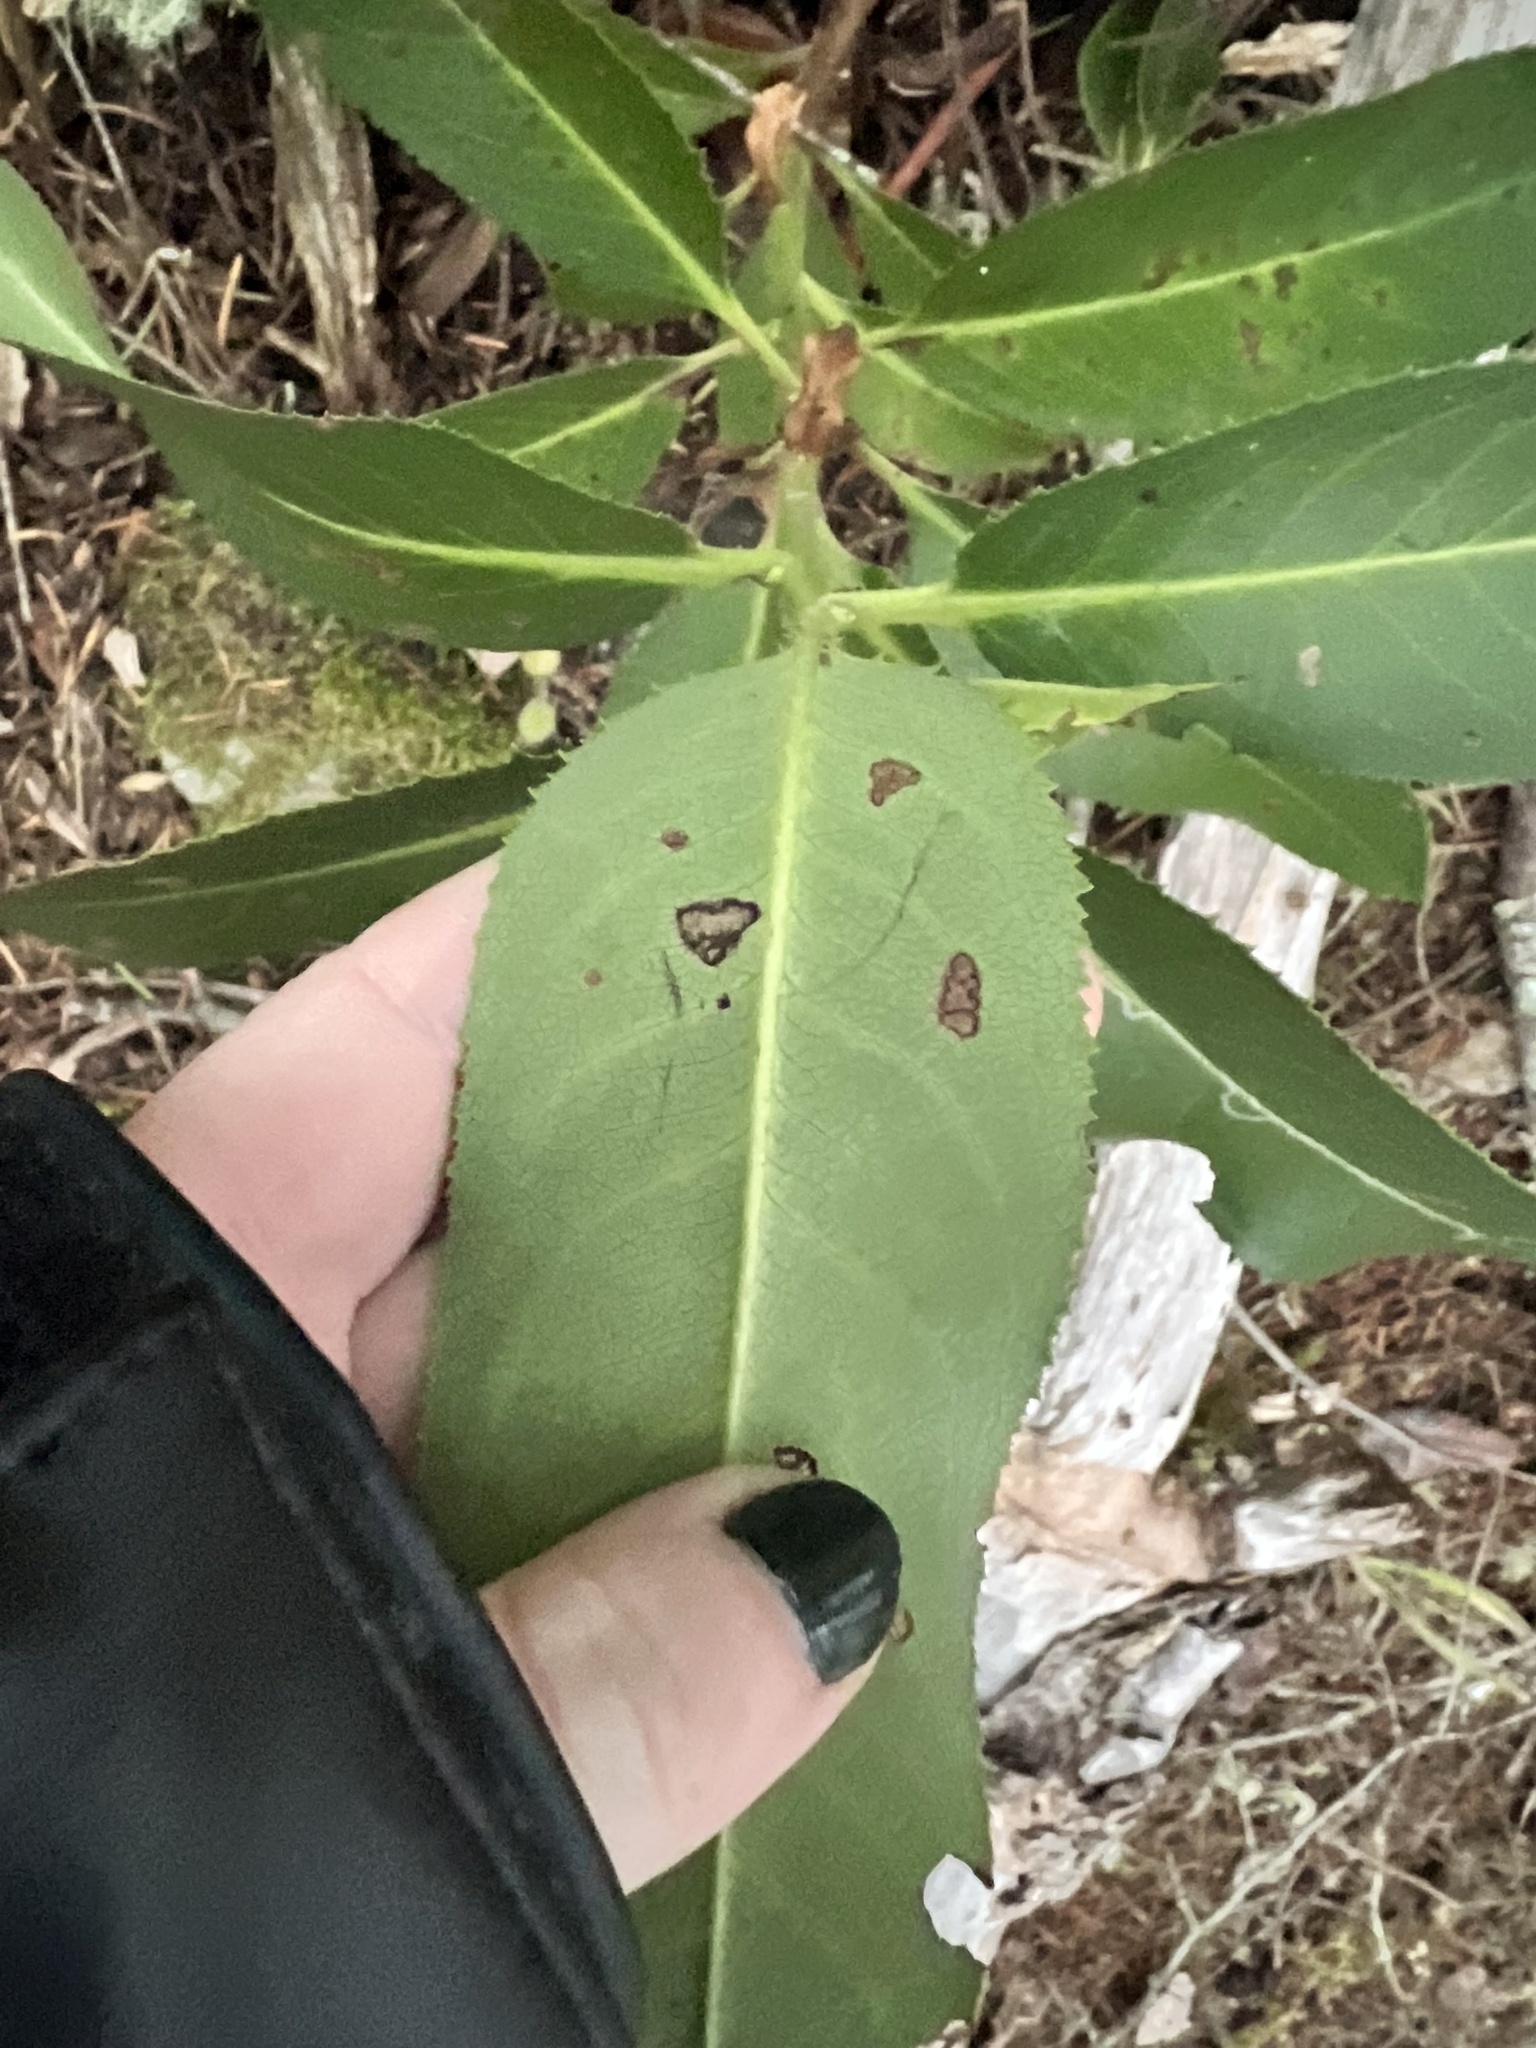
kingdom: Animalia
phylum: Arthropoda
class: Insecta
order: Lepidoptera
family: Gracillariidae
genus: Marmara
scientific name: Marmara arbutiella
